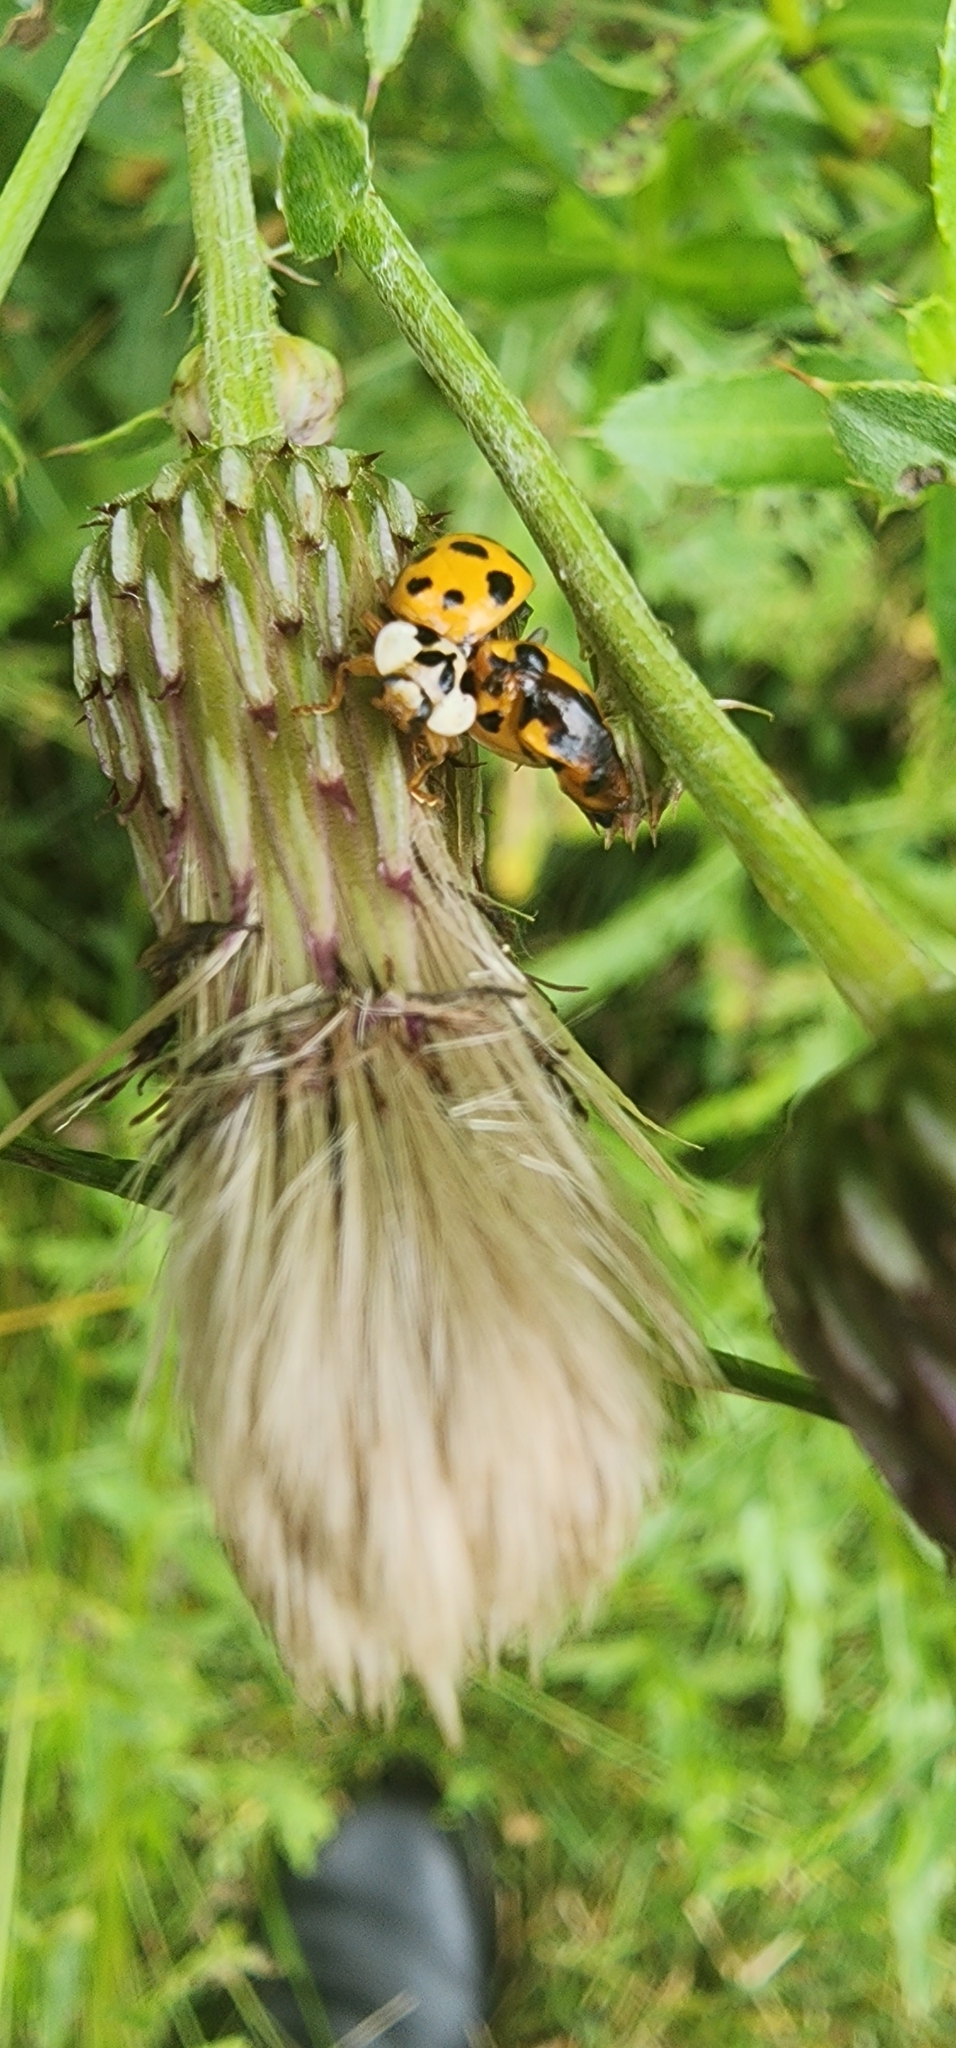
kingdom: Animalia
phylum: Arthropoda
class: Insecta
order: Coleoptera
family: Coccinellidae
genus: Harmonia
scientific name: Harmonia axyridis
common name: Harlequin ladybird
